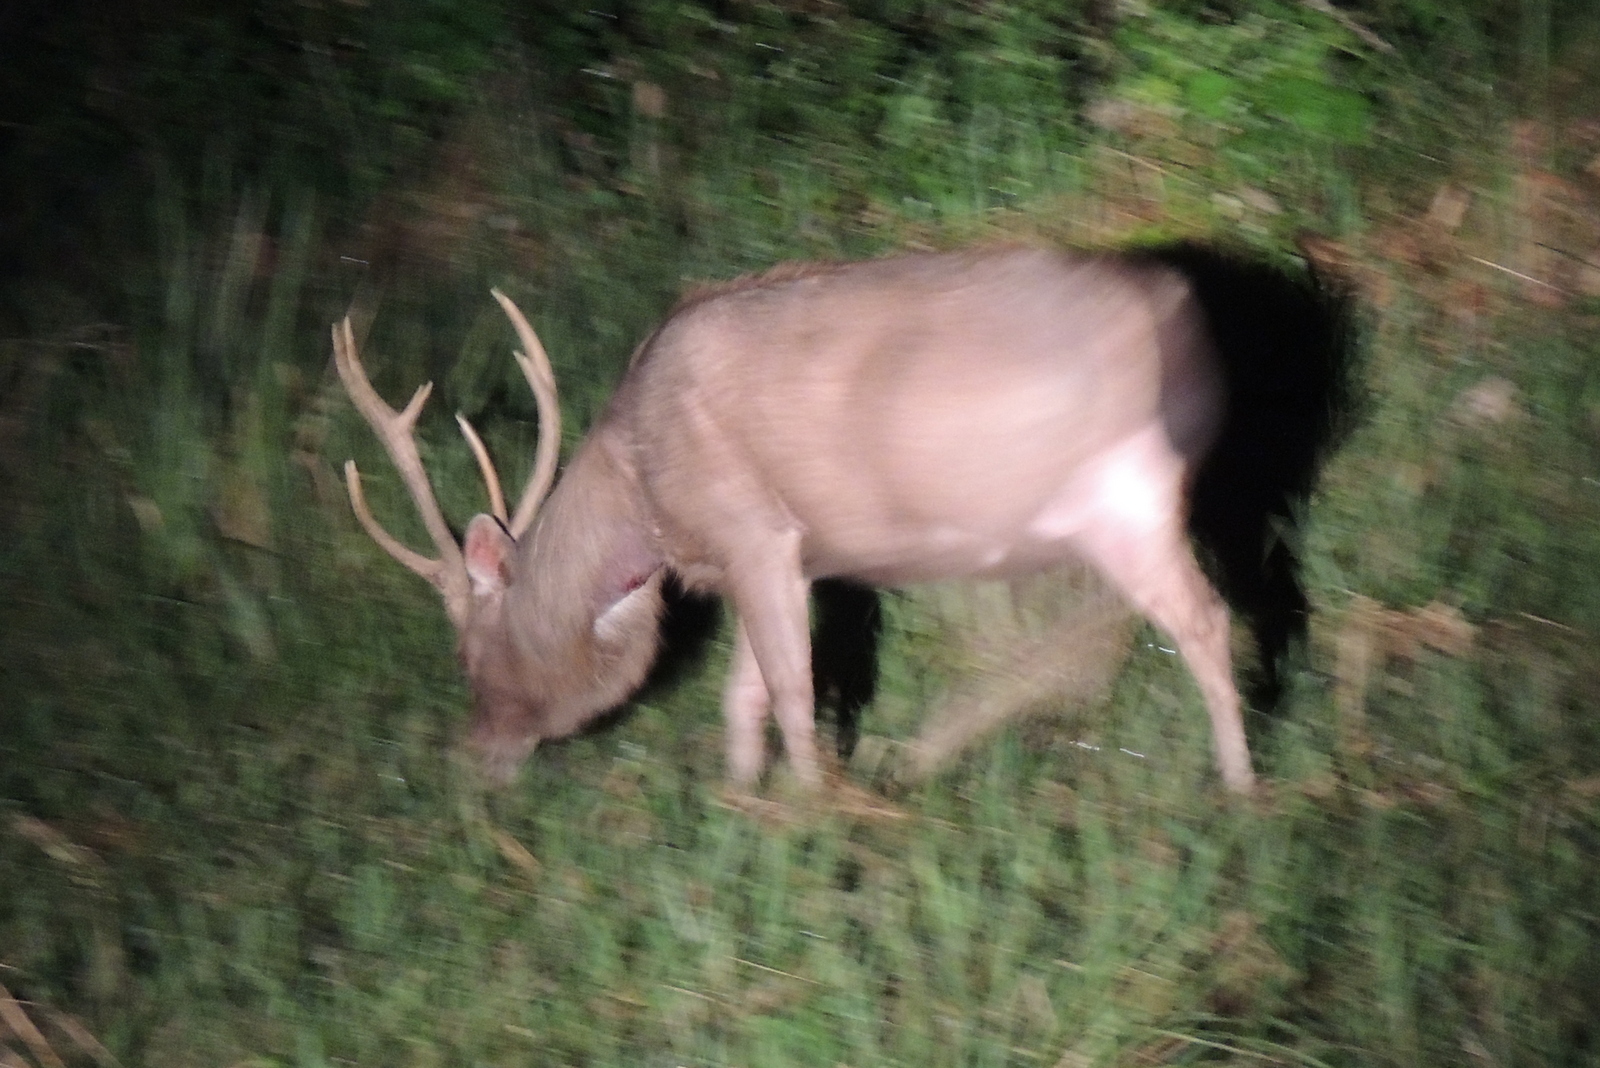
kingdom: Animalia
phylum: Chordata
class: Mammalia
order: Artiodactyla
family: Cervidae
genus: Rusa
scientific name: Rusa unicolor
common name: Sambar
